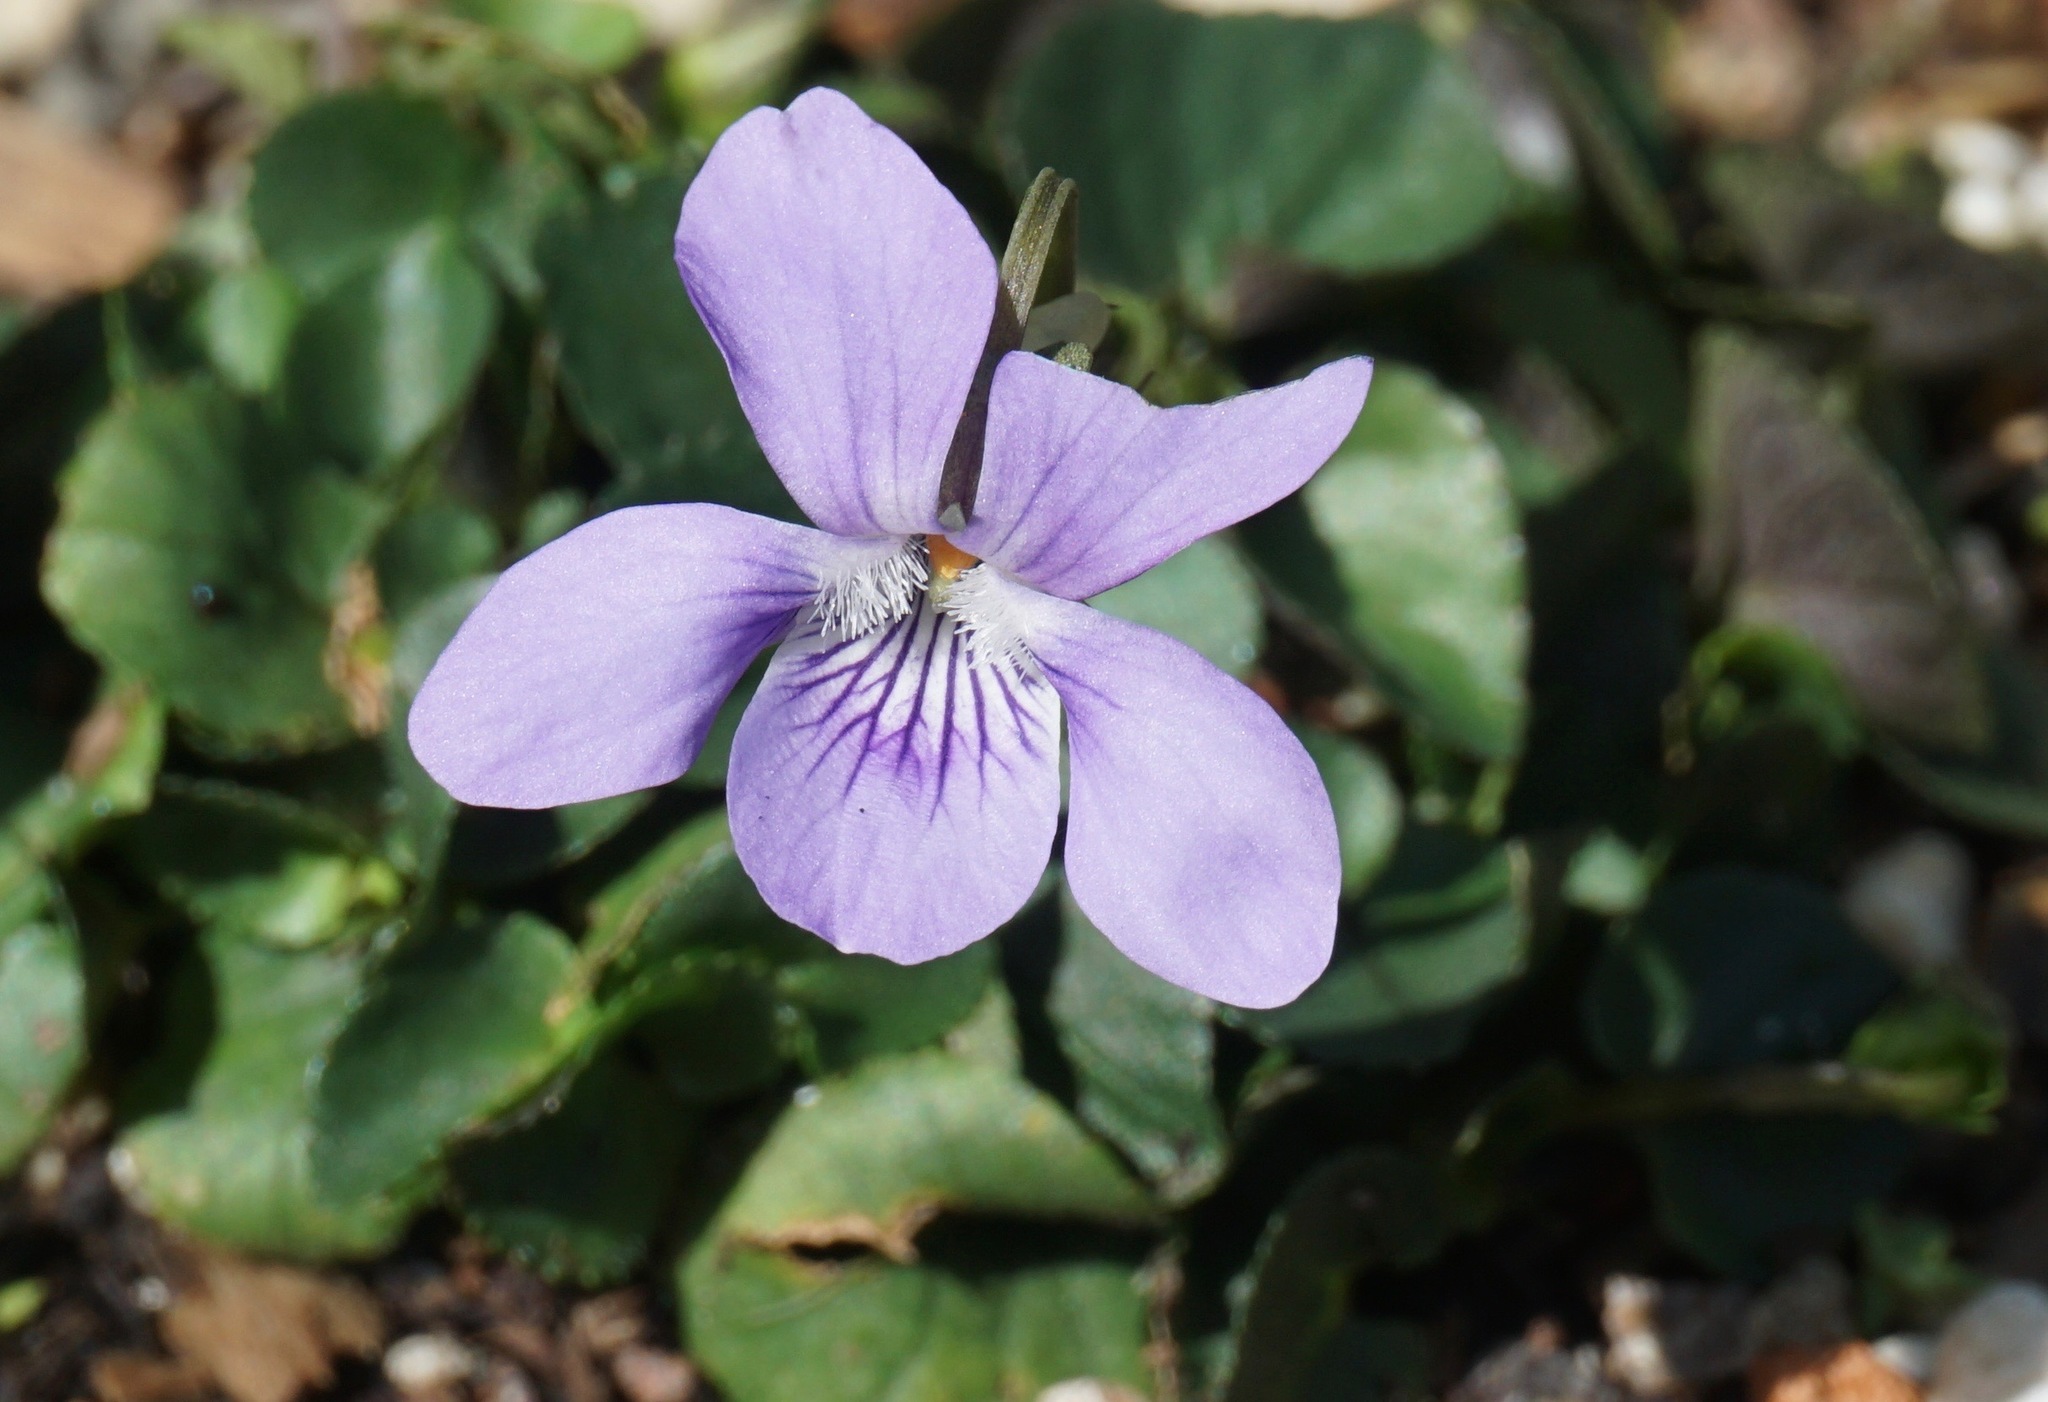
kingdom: Plantae
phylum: Tracheophyta
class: Magnoliopsida
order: Malpighiales
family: Violaceae
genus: Viola
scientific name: Viola adunca
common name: Sand violet
